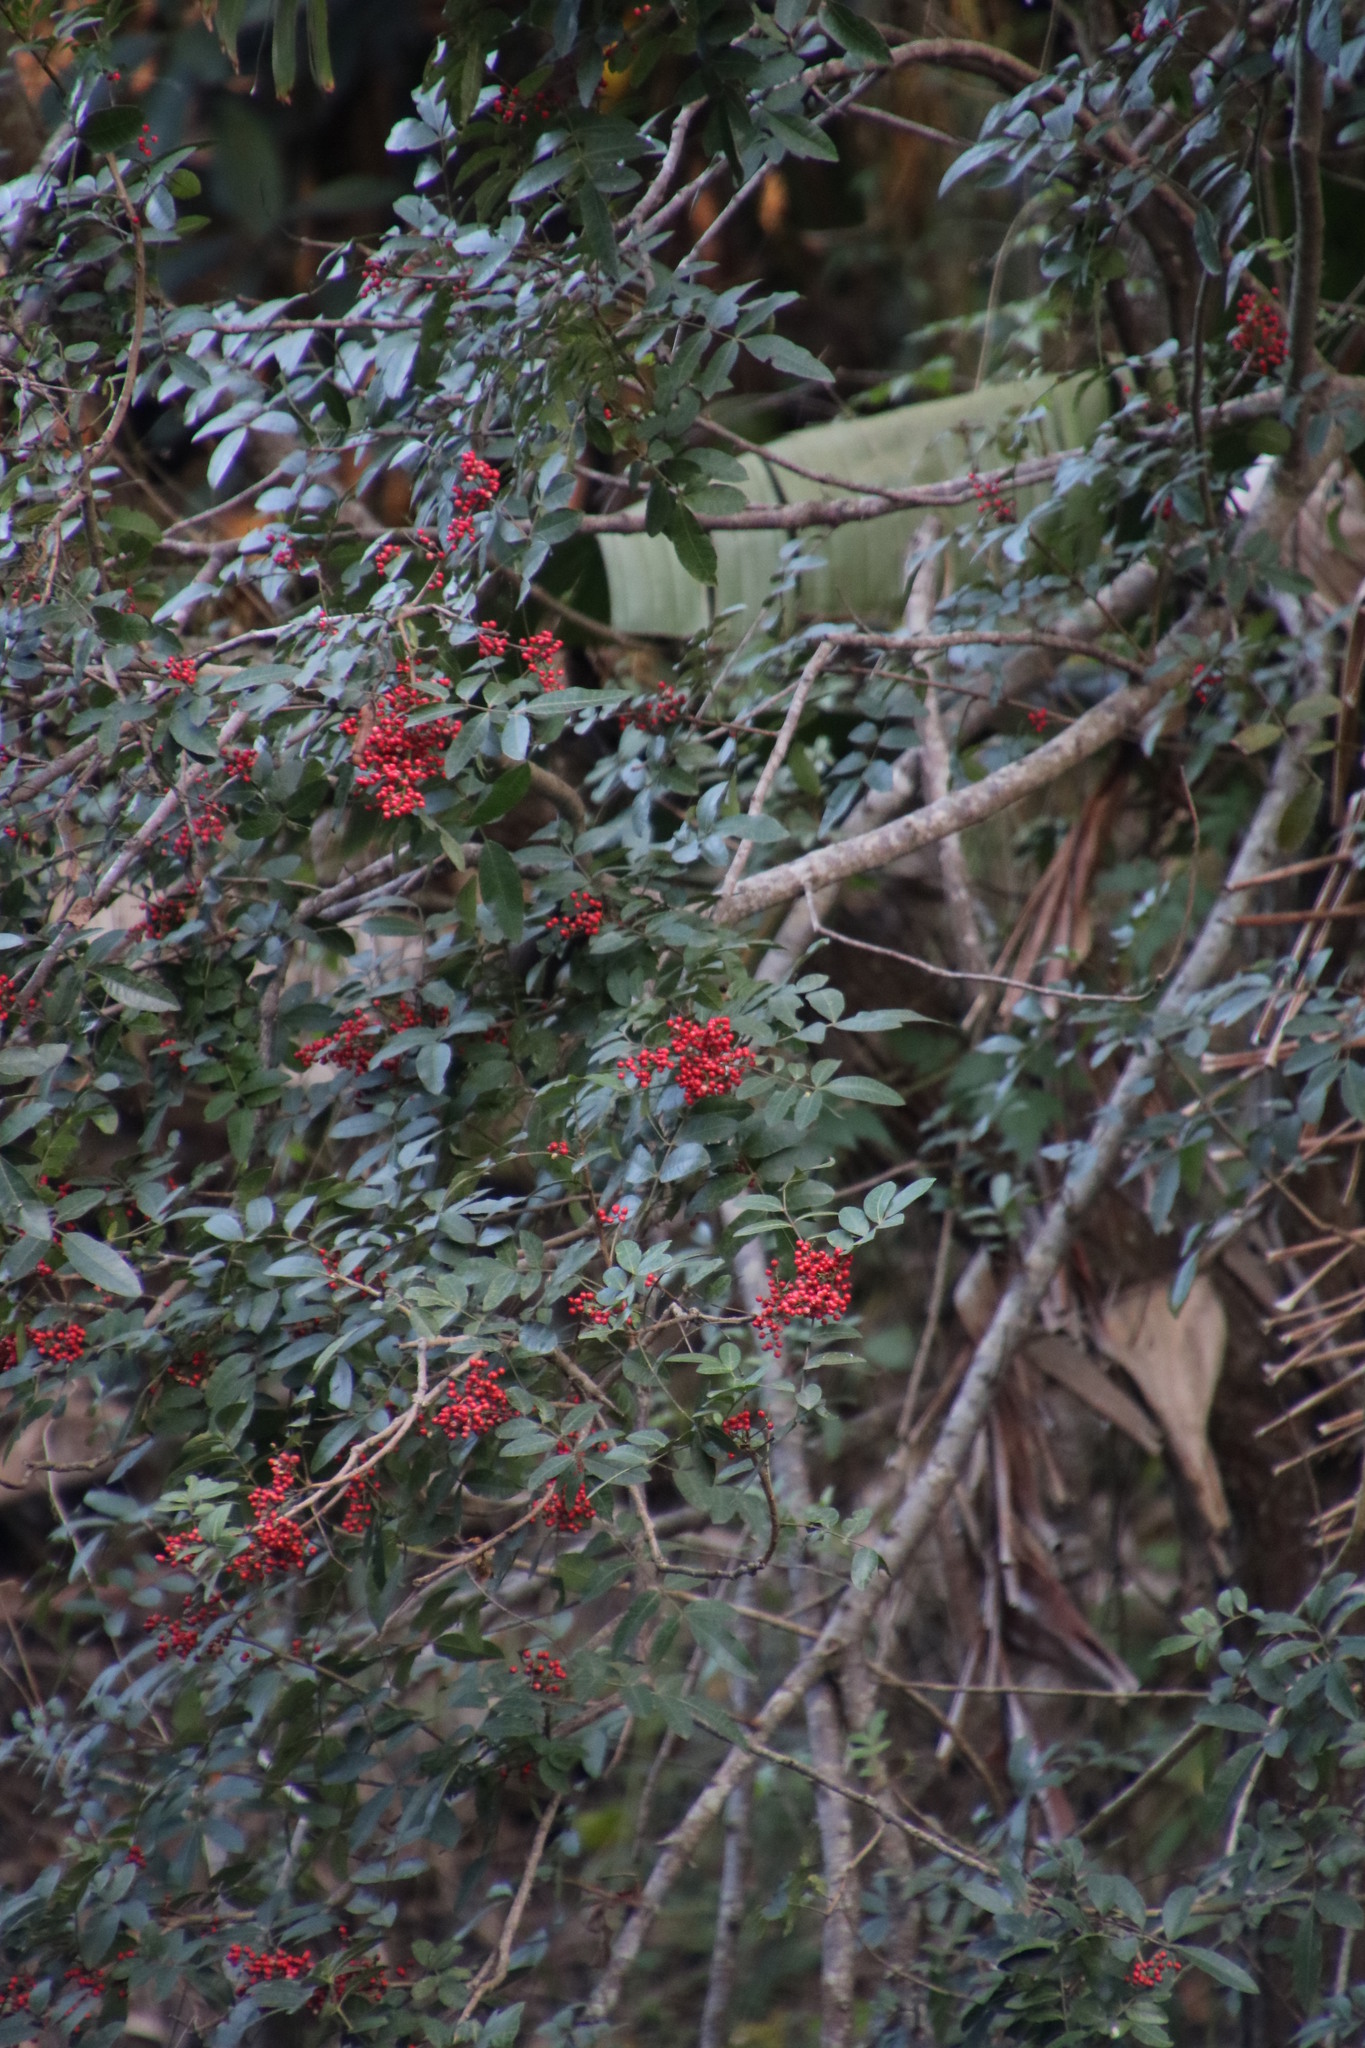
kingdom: Plantae
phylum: Tracheophyta
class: Magnoliopsida
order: Sapindales
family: Anacardiaceae
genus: Schinus
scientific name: Schinus terebinthifolia
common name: Brazilian peppertree
